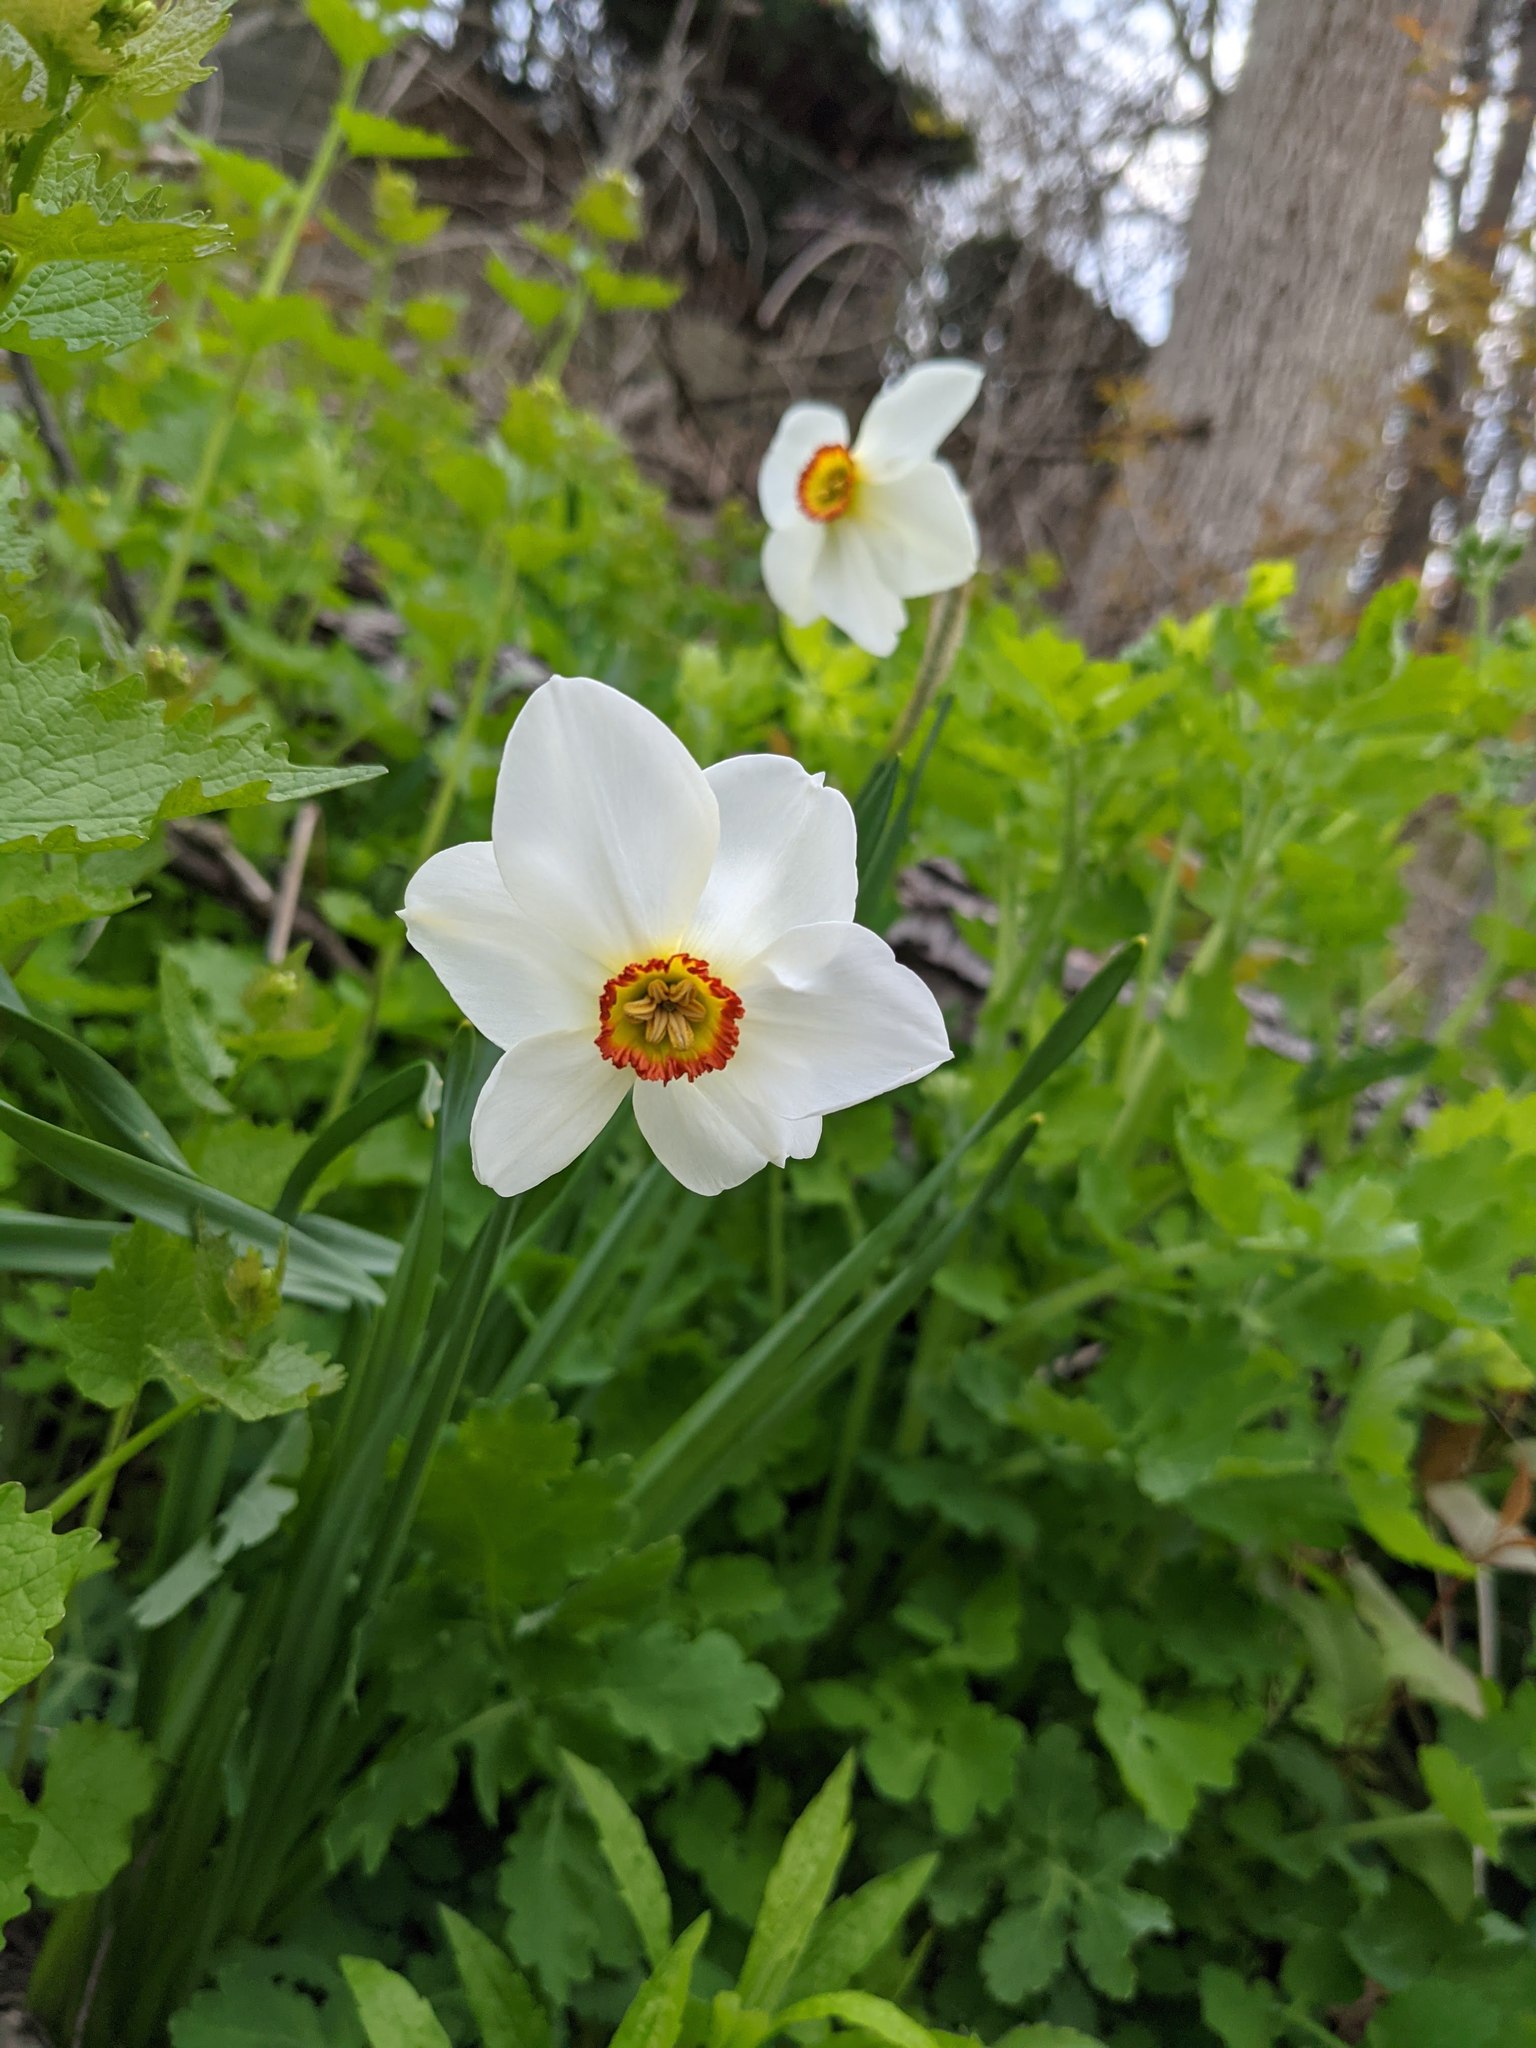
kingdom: Plantae
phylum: Tracheophyta
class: Liliopsida
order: Asparagales
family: Amaryllidaceae
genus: Narcissus
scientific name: Narcissus poeticus
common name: Pheasant's-eye daffodil
